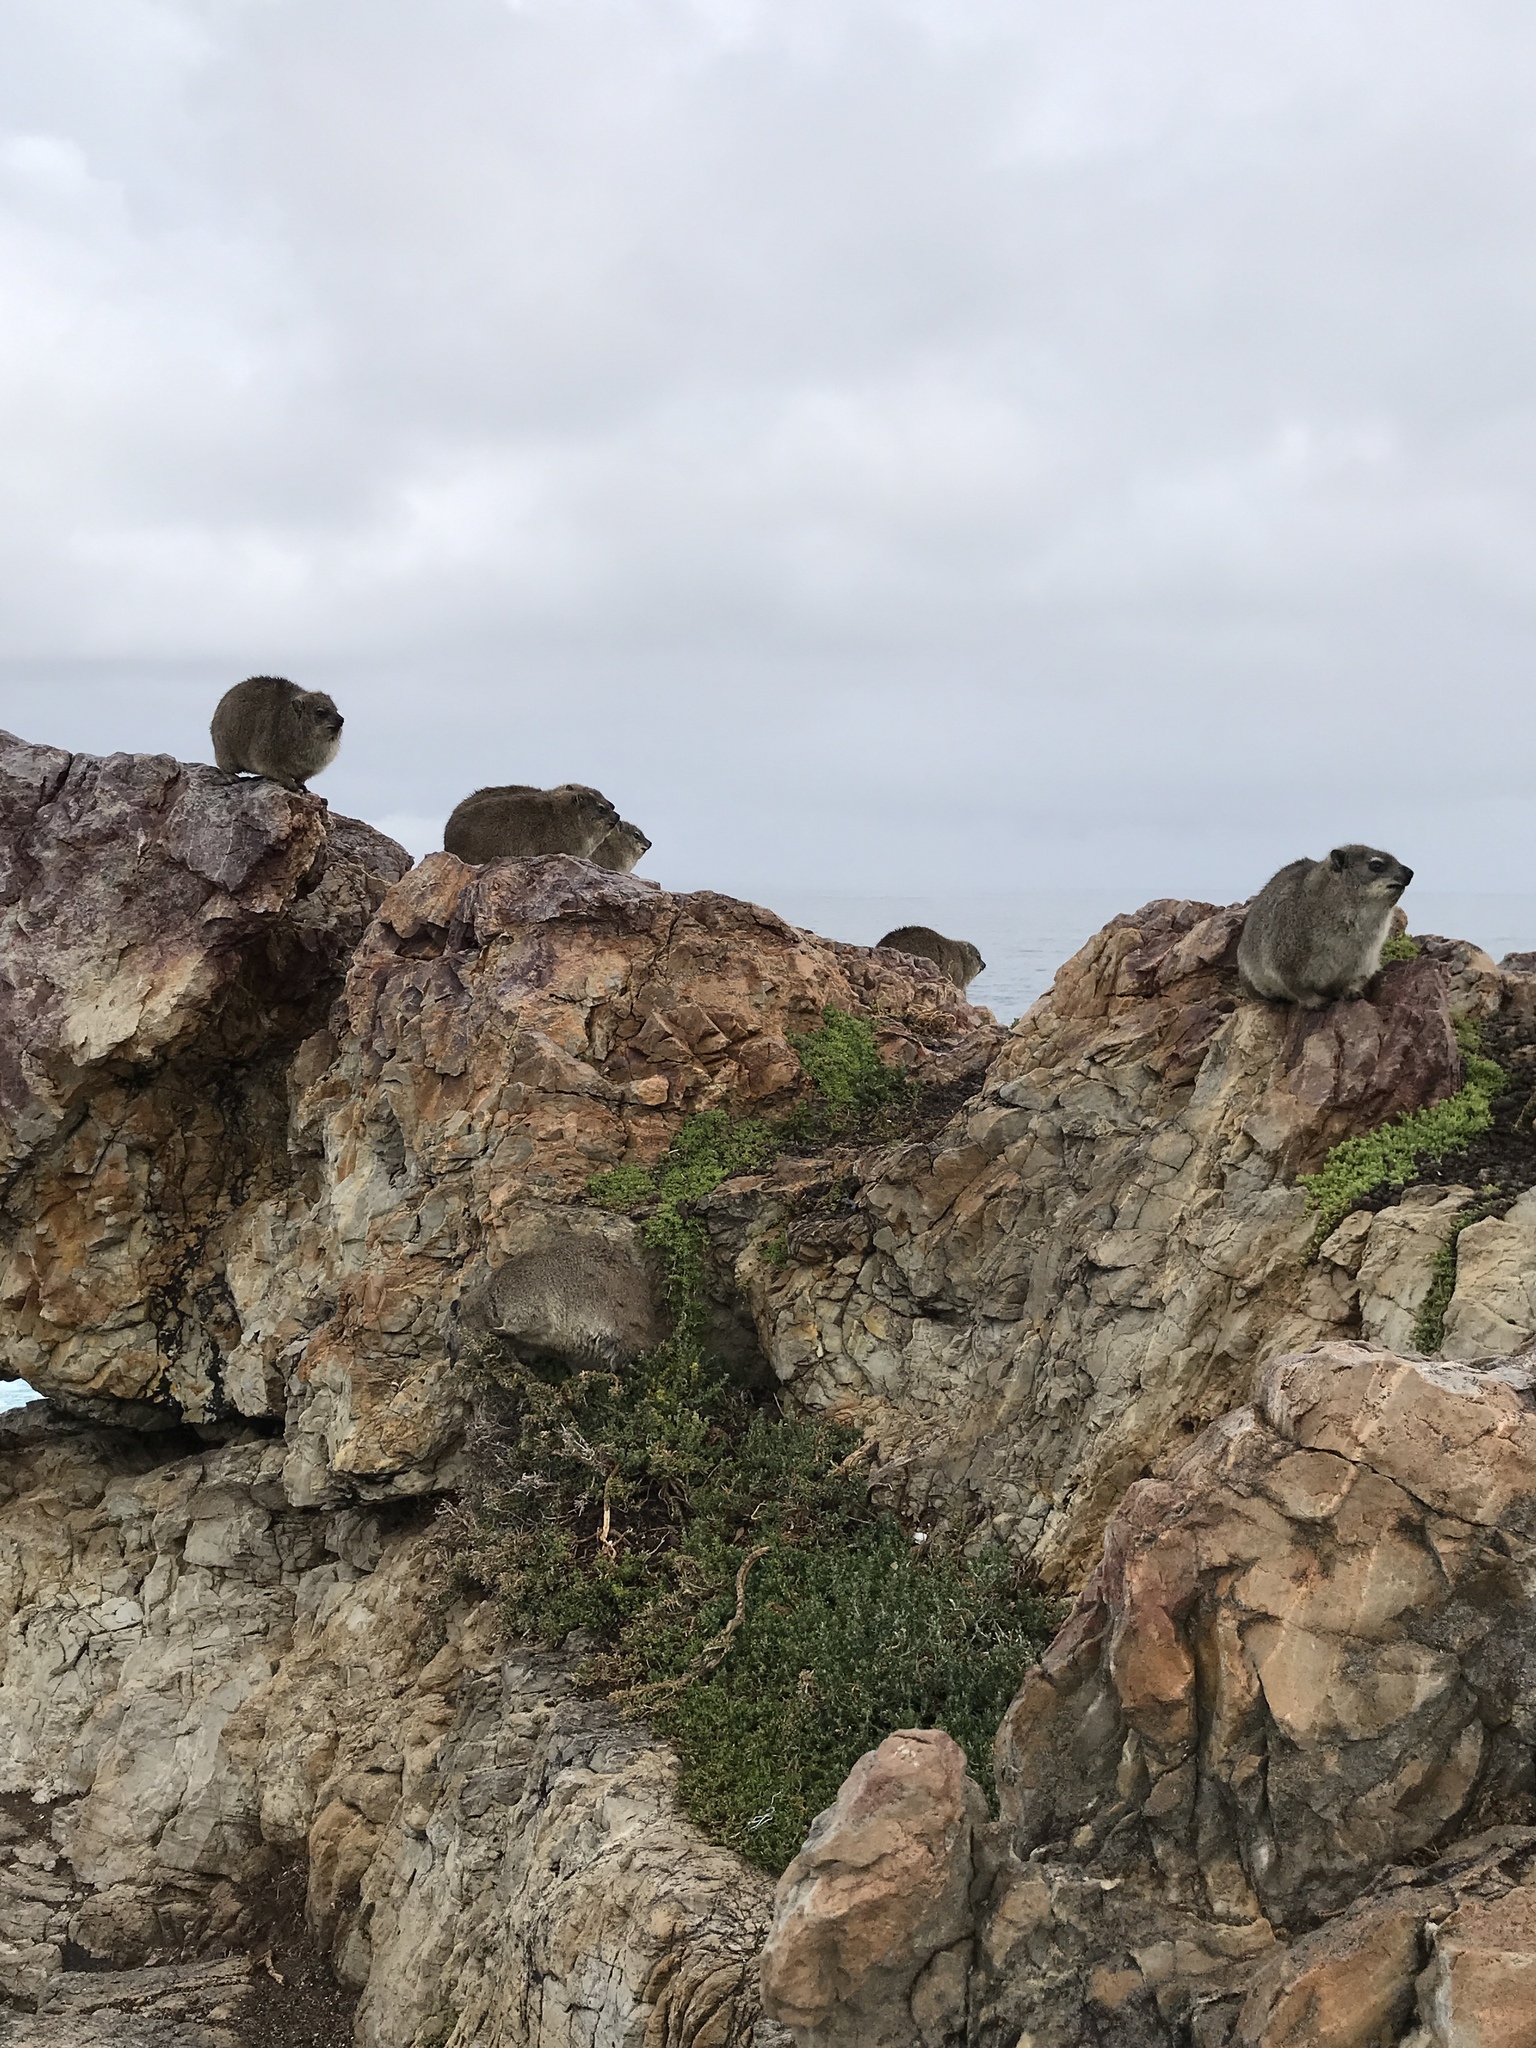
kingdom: Animalia
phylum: Chordata
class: Mammalia
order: Hyracoidea
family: Procaviidae
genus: Procavia
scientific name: Procavia capensis
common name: Rock hyrax
